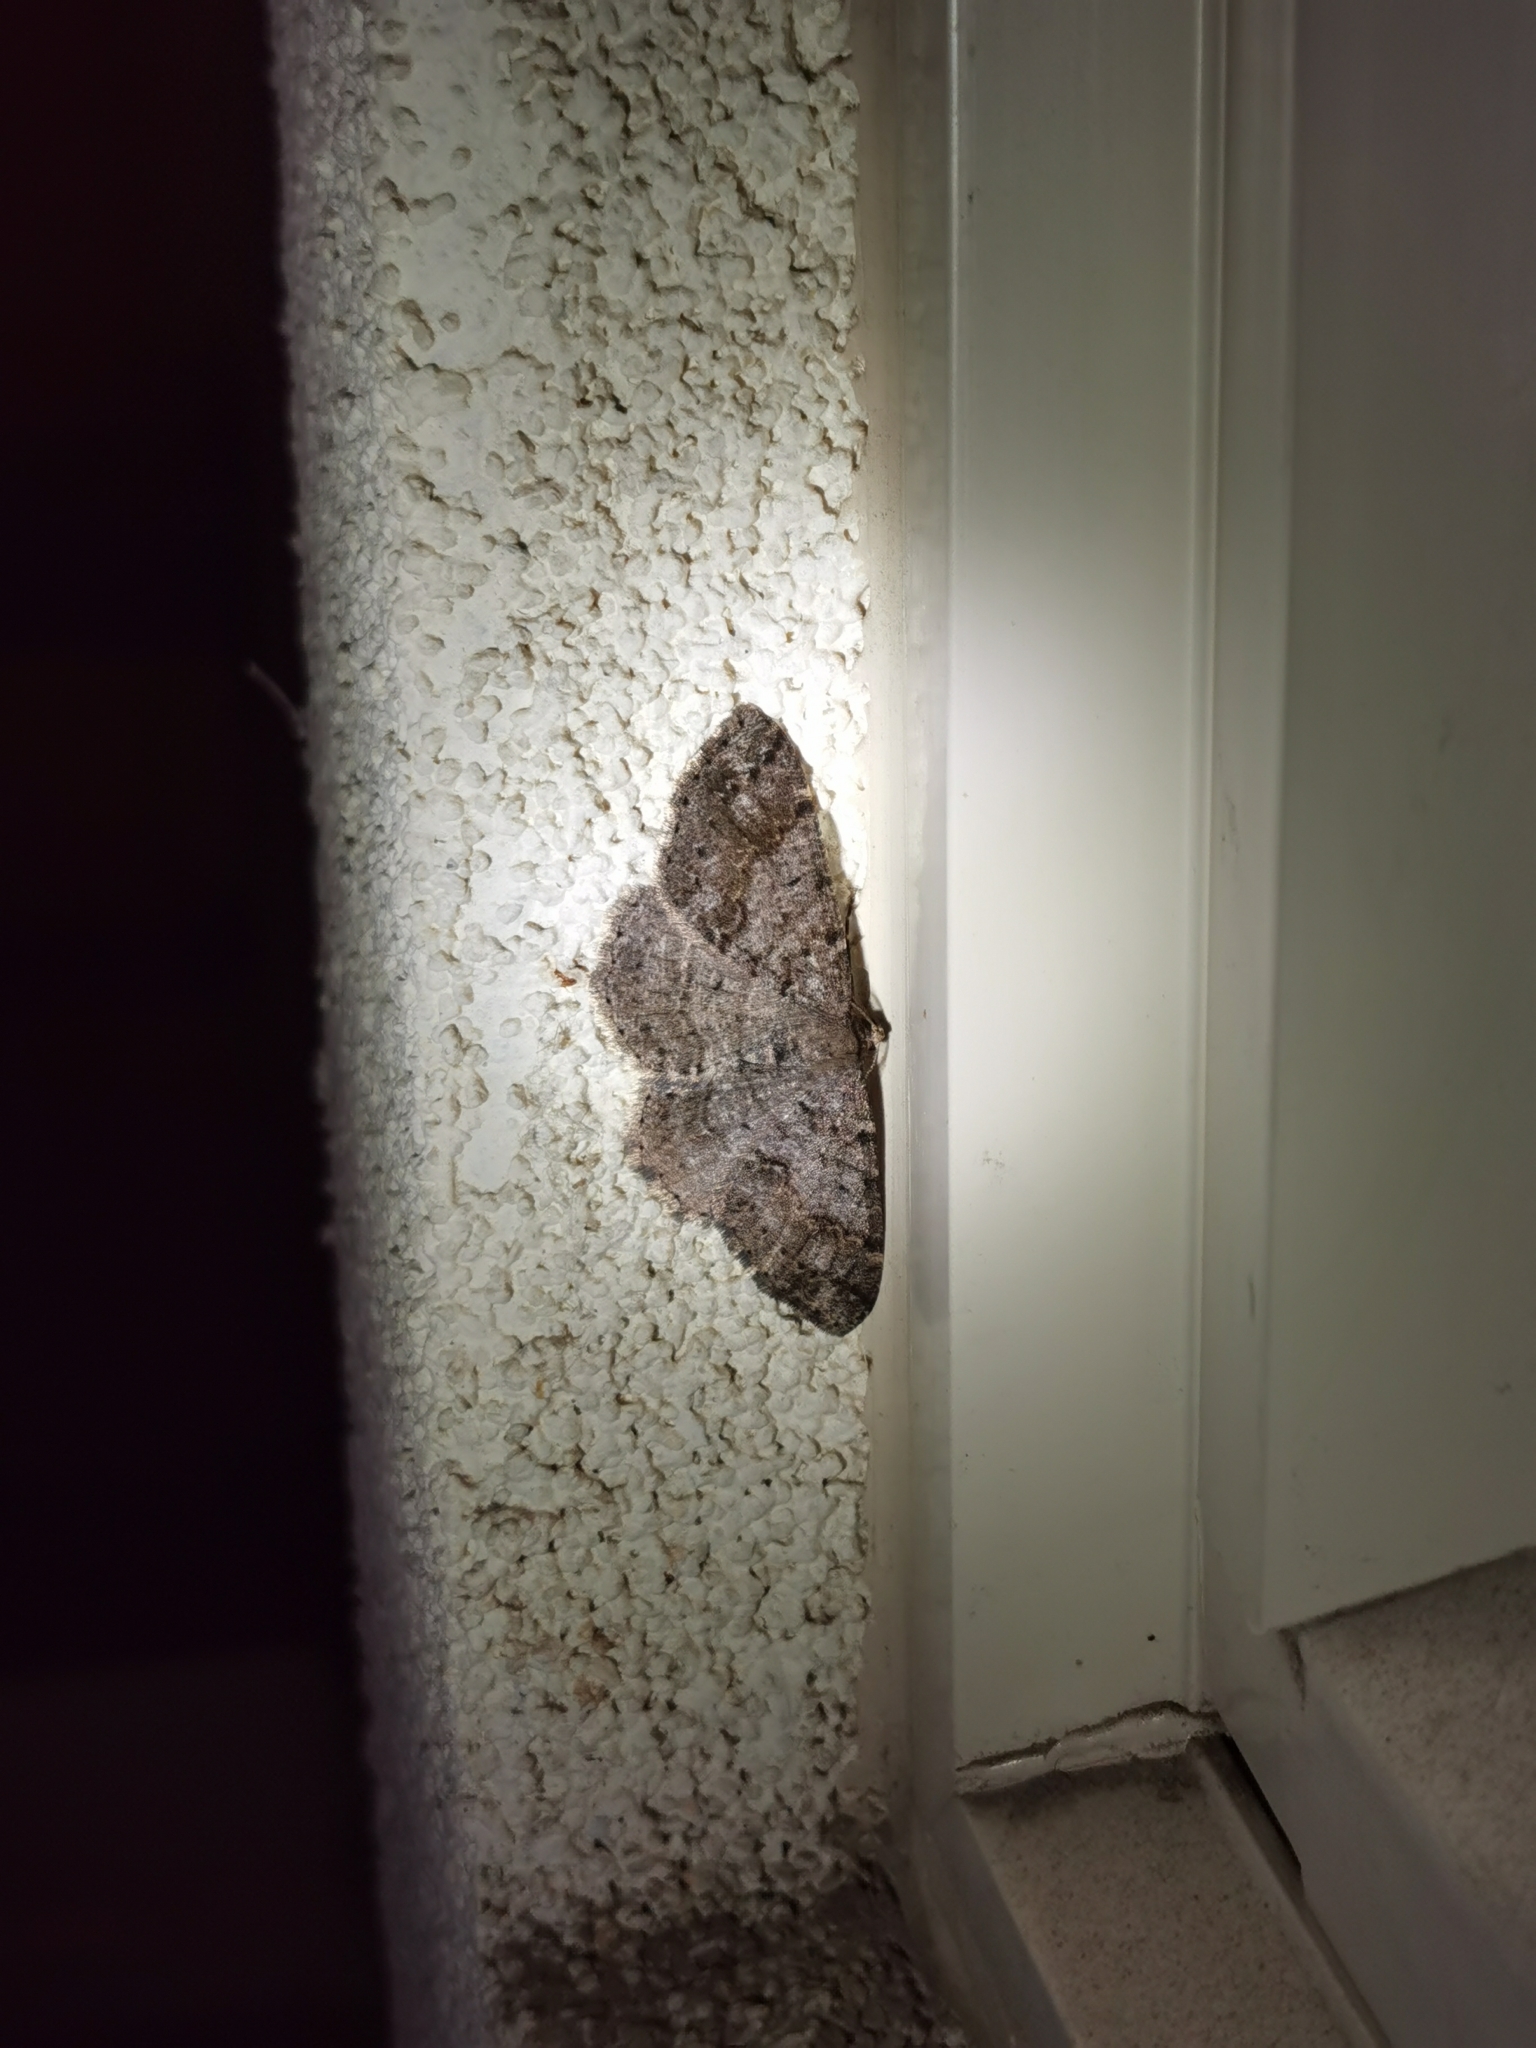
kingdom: Animalia
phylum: Arthropoda
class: Insecta
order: Lepidoptera
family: Geometridae
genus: Melanolophia
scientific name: Melanolophia imitata
